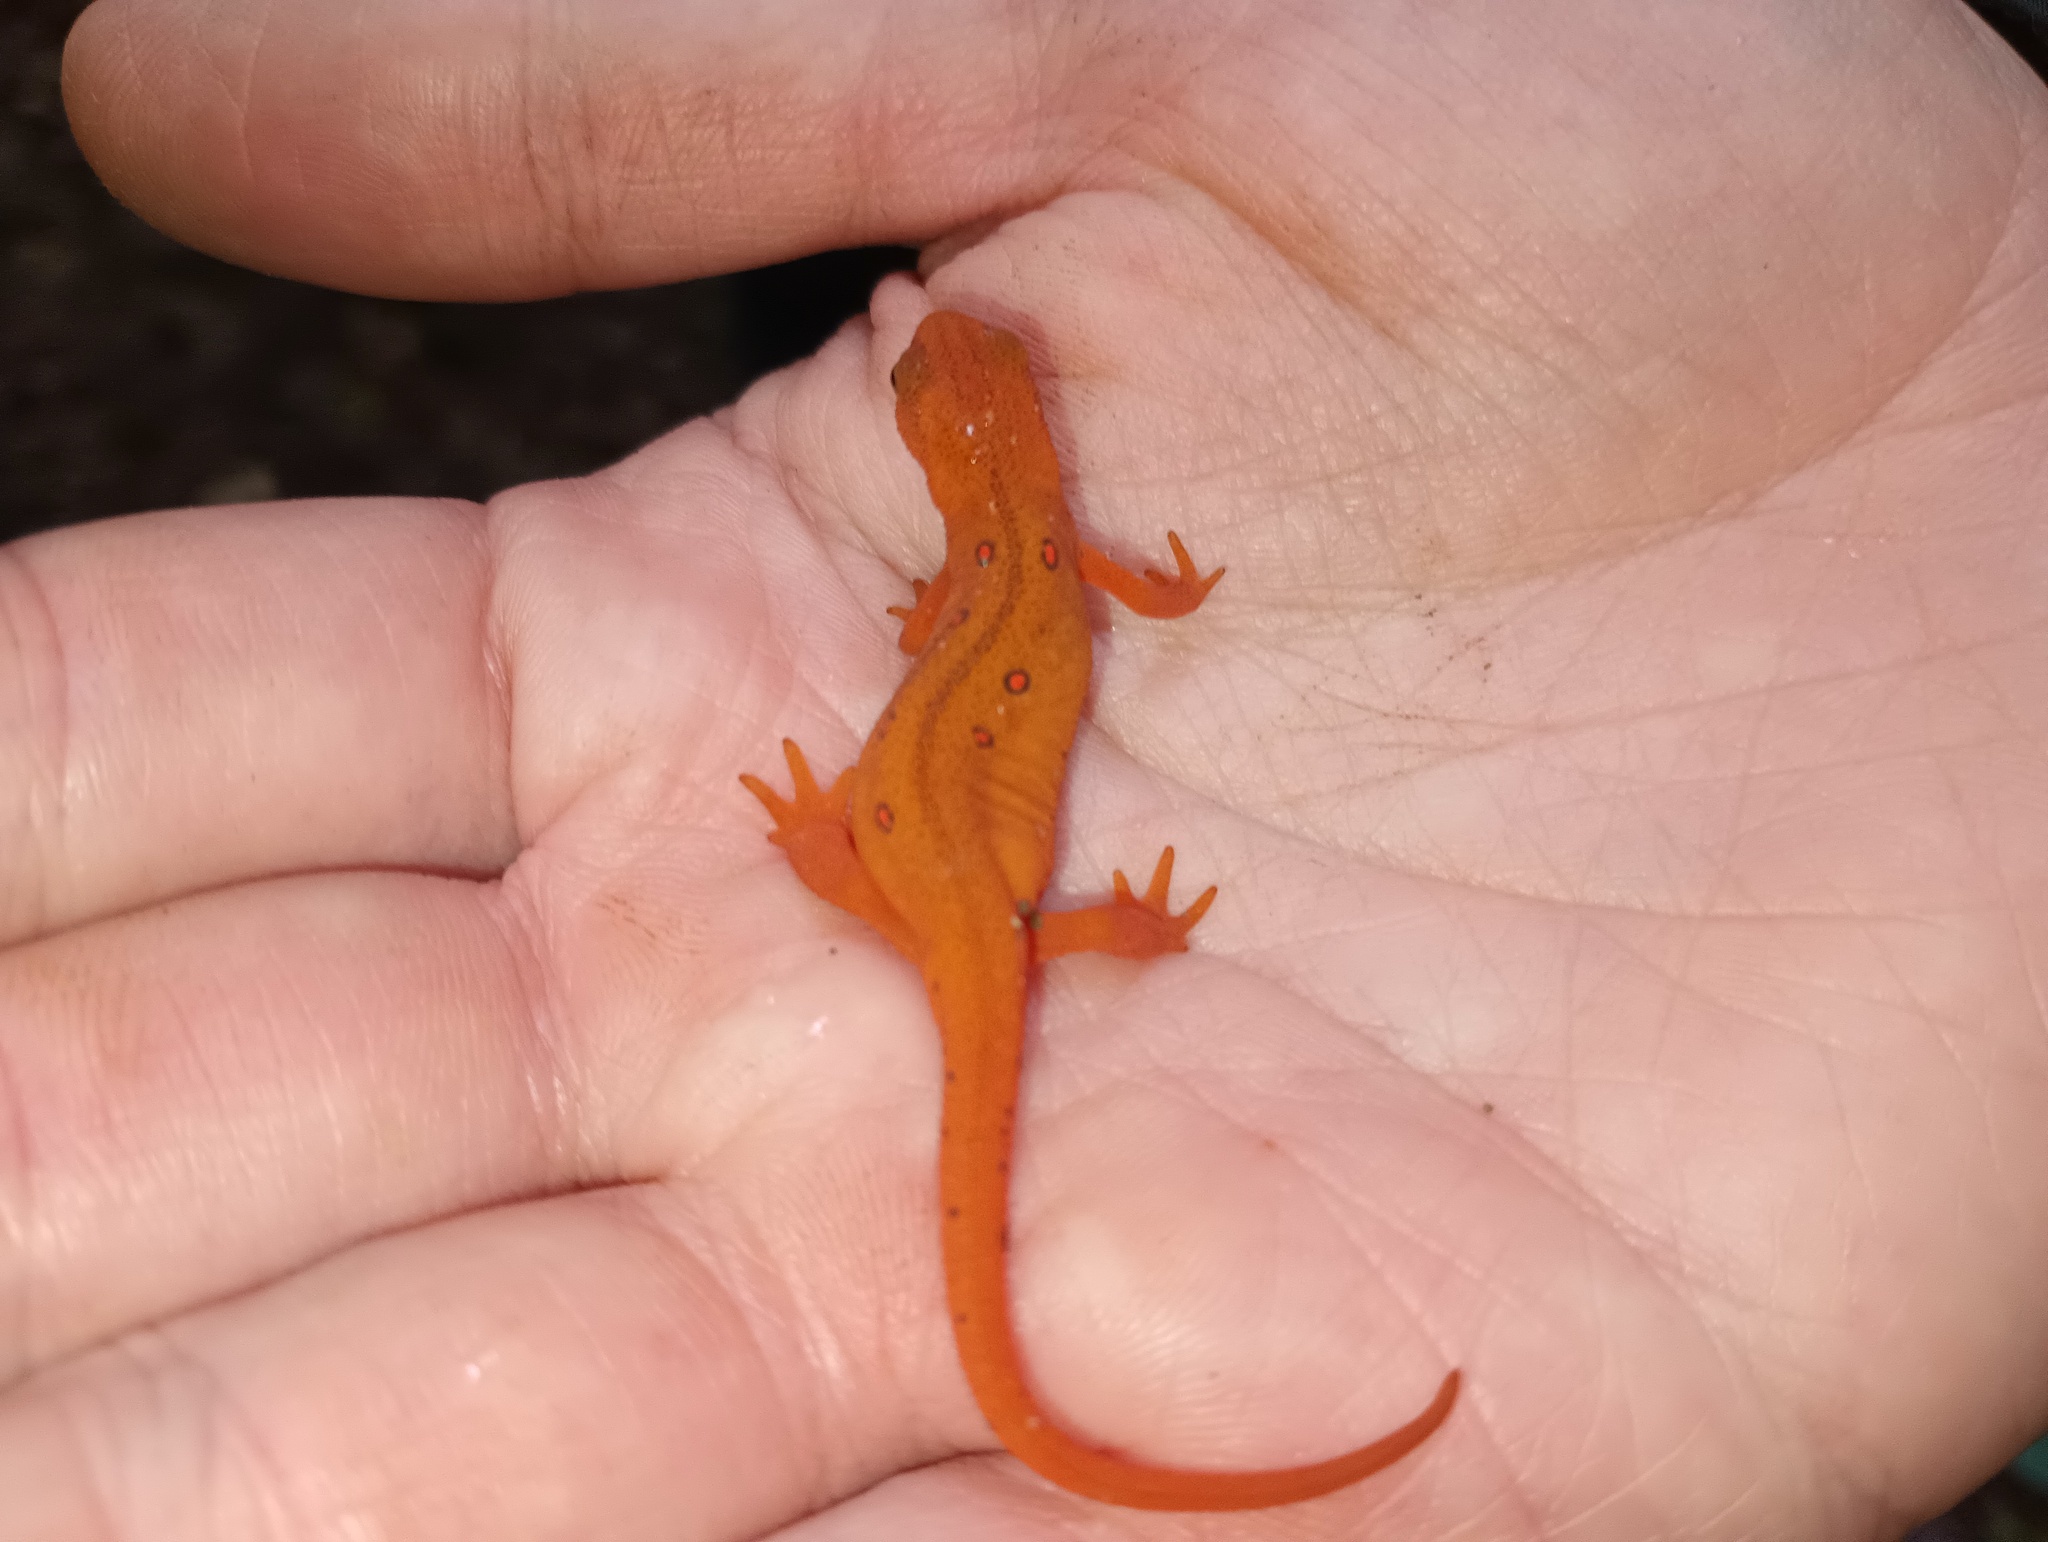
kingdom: Animalia
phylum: Chordata
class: Amphibia
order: Caudata
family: Salamandridae
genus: Notophthalmus
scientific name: Notophthalmus viridescens
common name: Eastern newt
